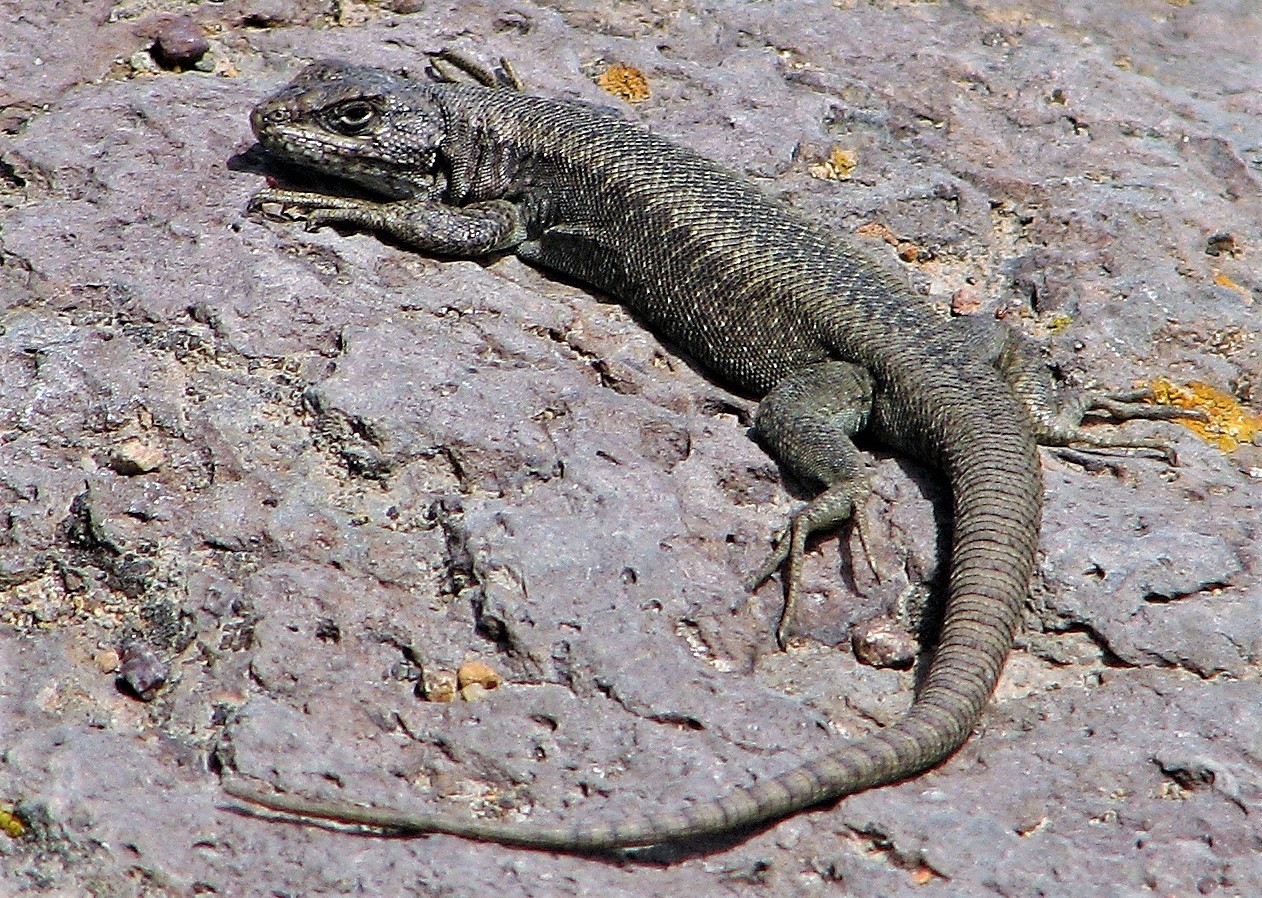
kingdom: Animalia
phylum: Chordata
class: Squamata
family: Liolaemidae
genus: Liolaemus
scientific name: Liolaemus elongatus
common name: Elongate tree iguana
